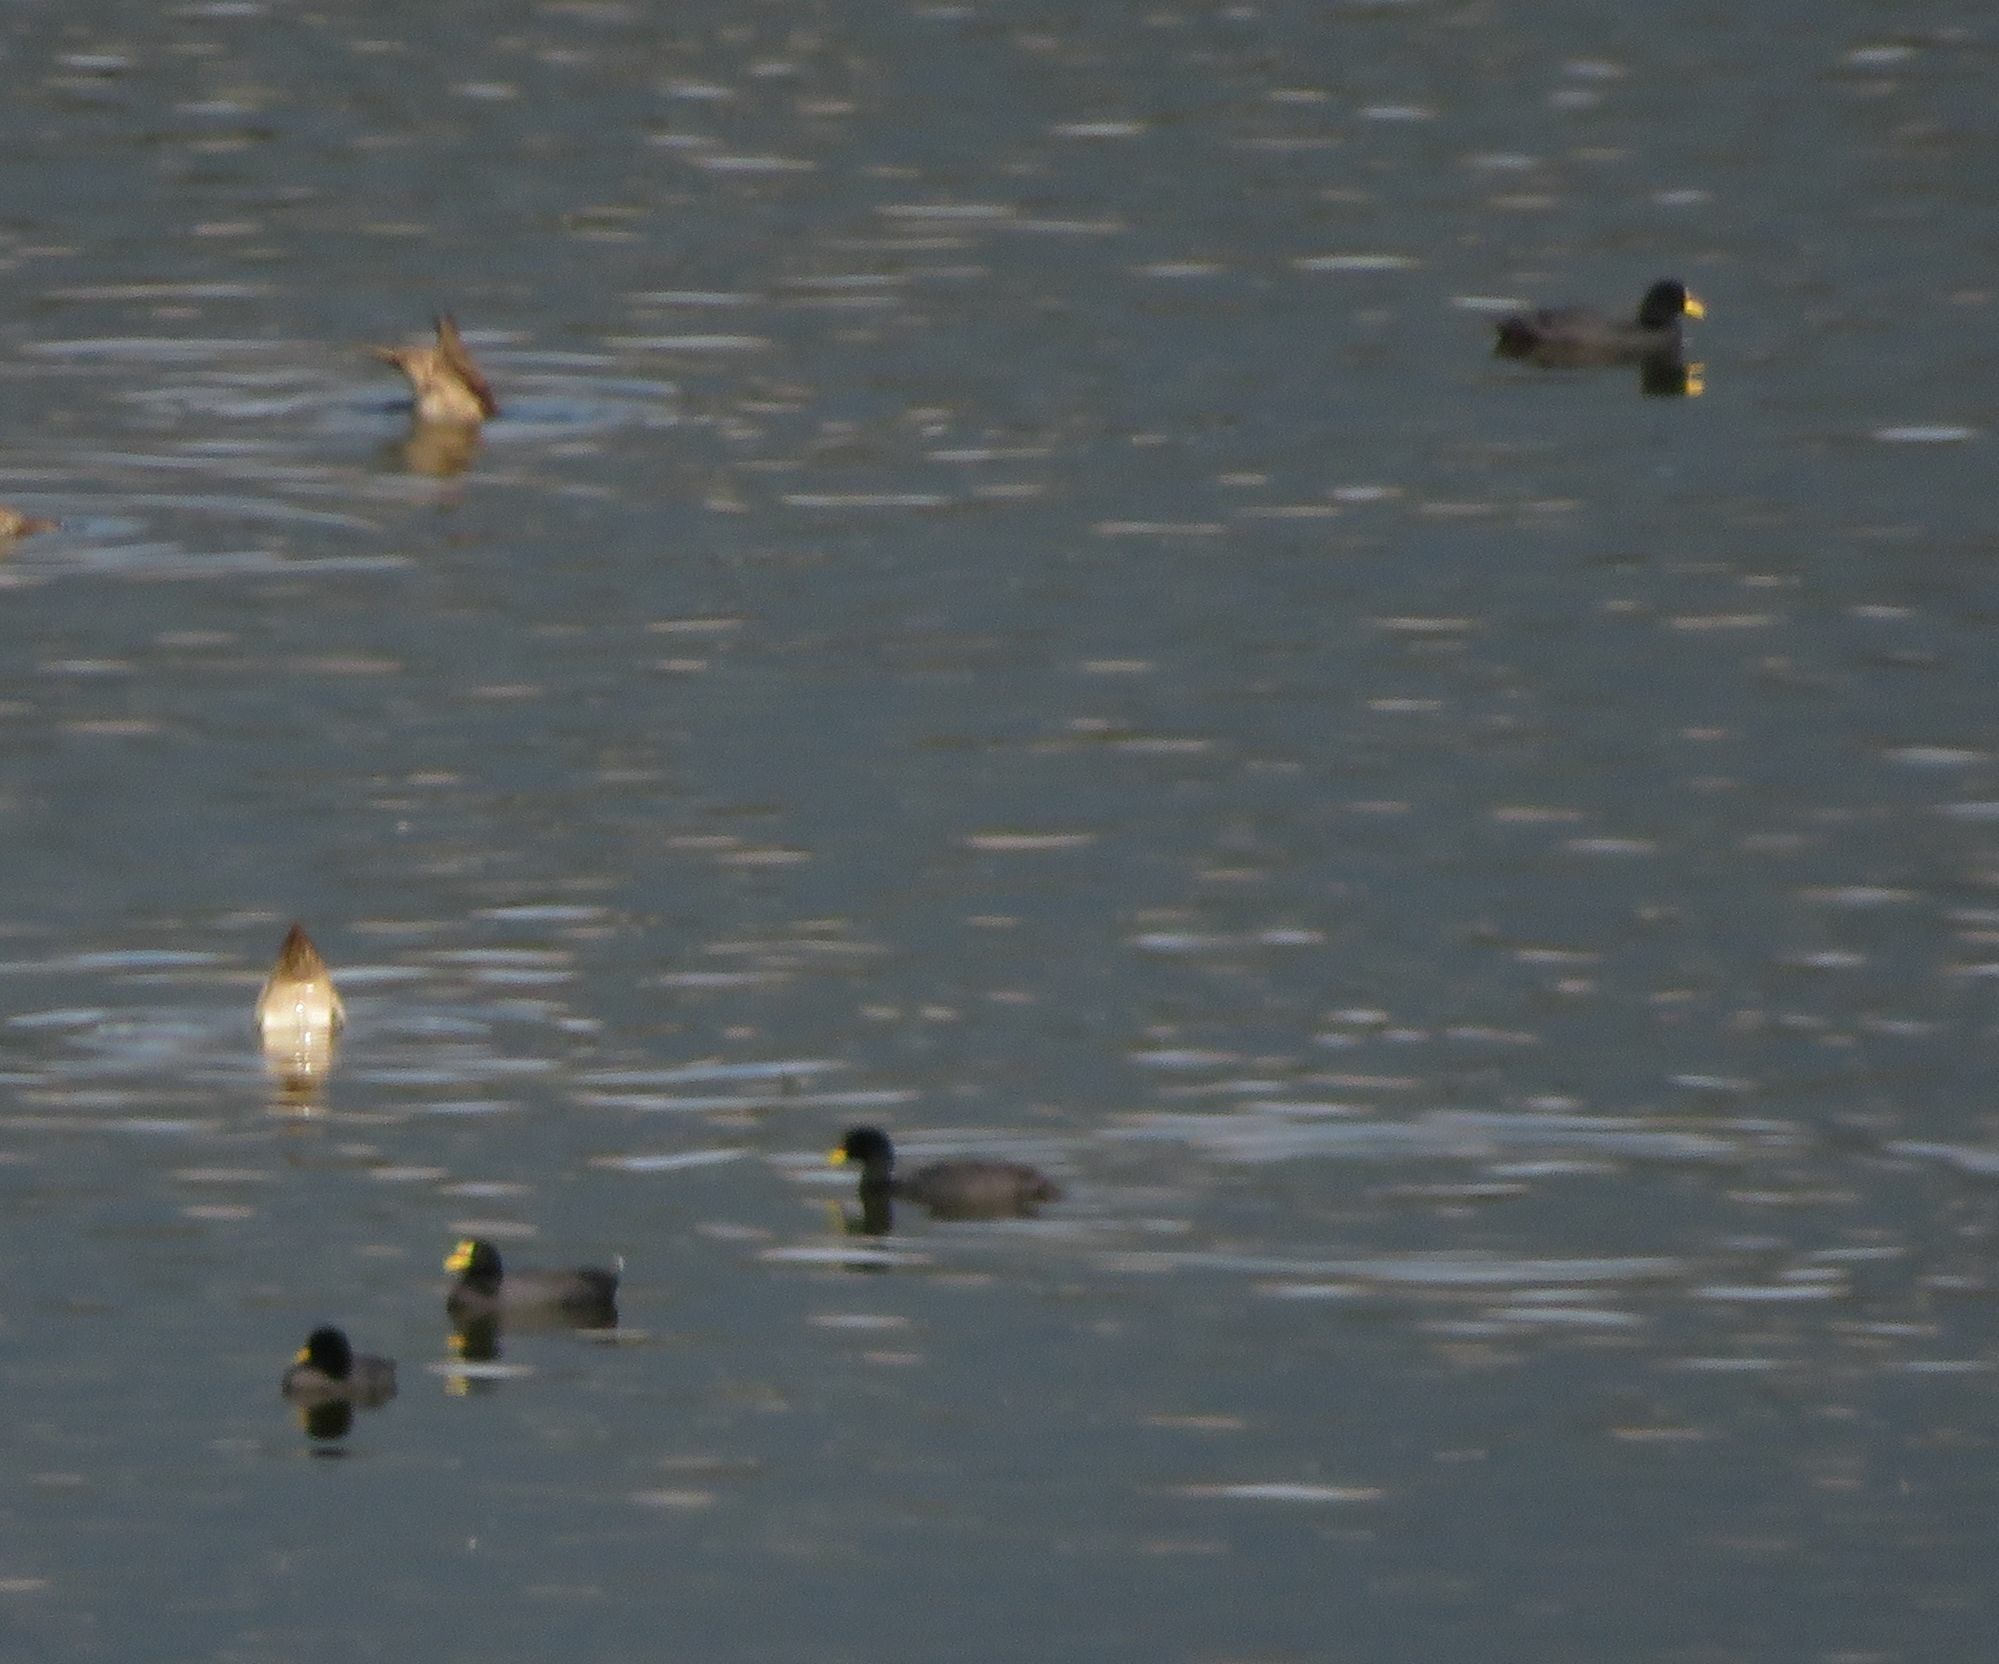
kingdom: Animalia
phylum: Chordata
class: Aves
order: Gruiformes
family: Rallidae
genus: Fulica
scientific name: Fulica armillata
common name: Red-gartered coot
